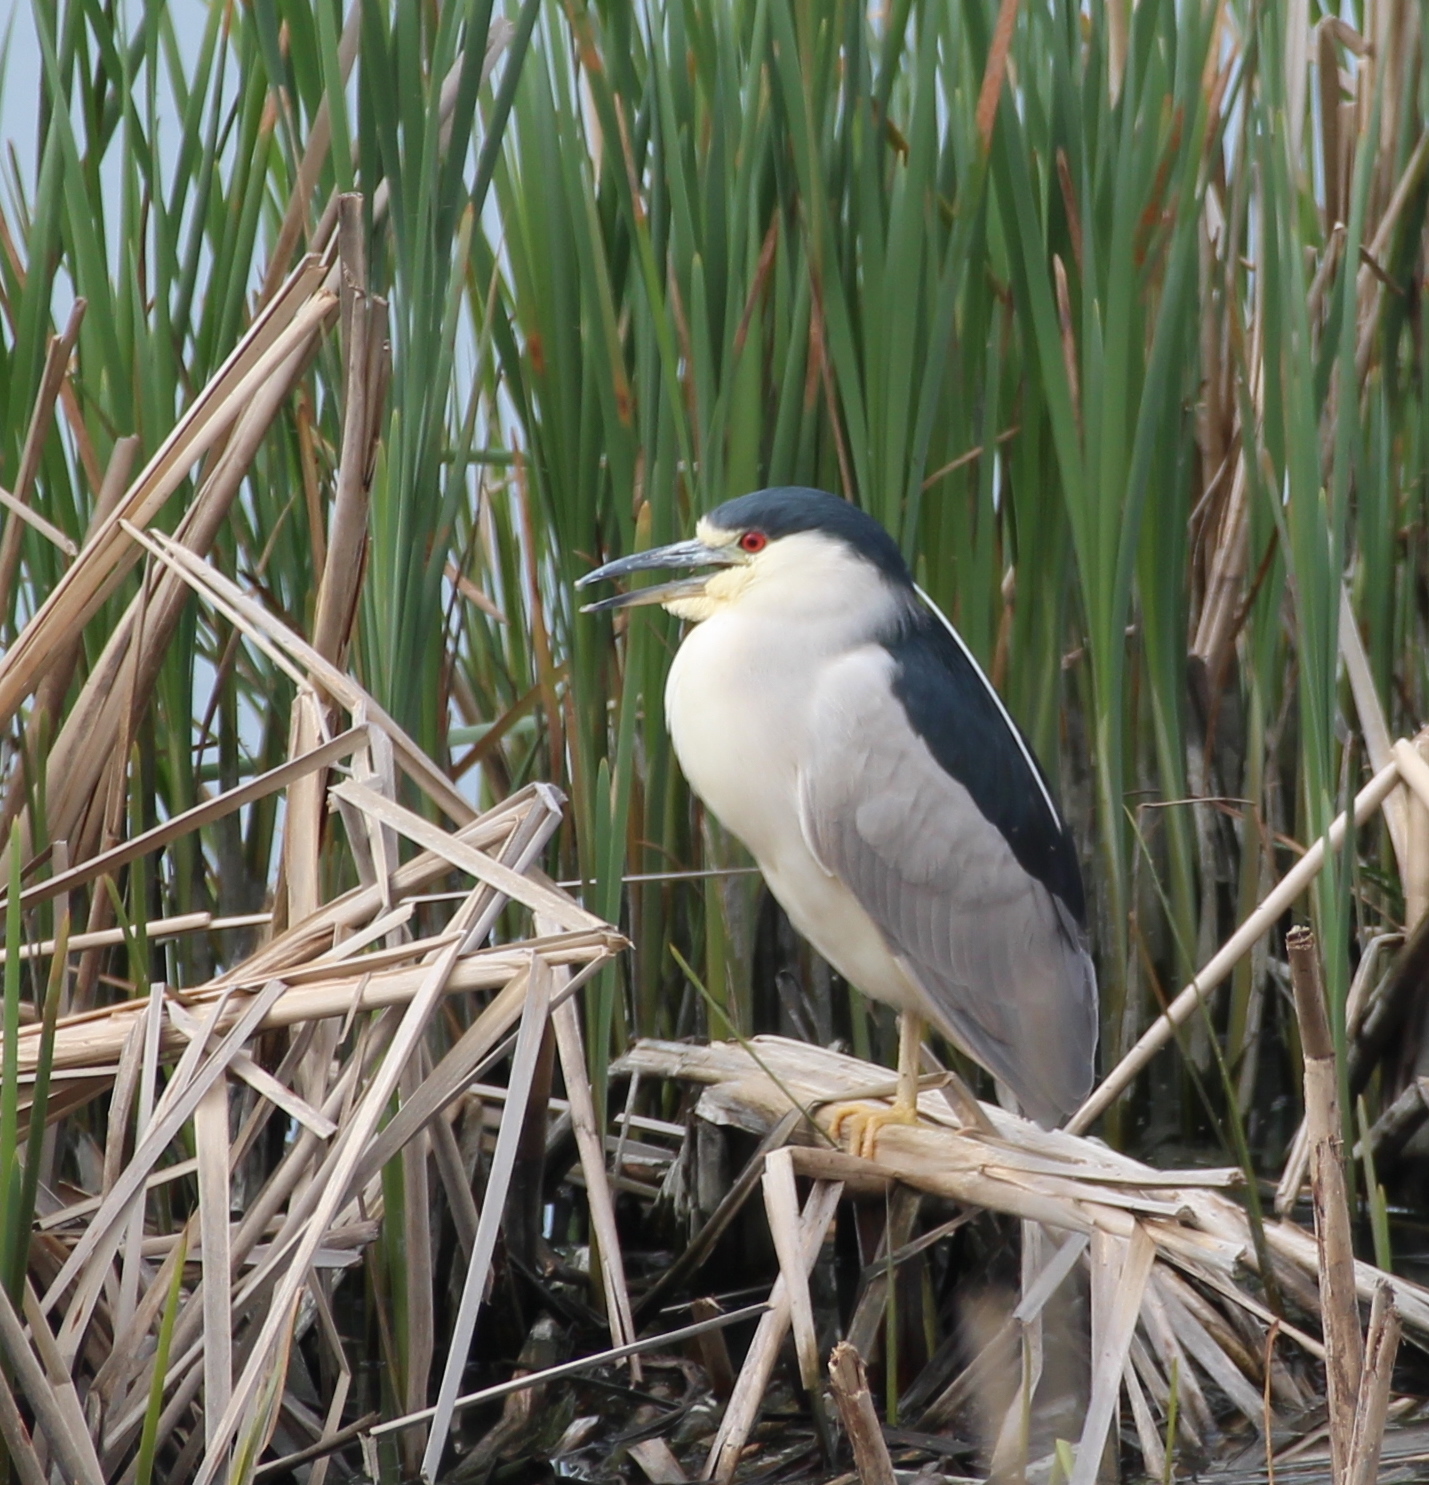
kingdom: Animalia
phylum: Chordata
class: Aves
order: Pelecaniformes
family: Ardeidae
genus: Nycticorax
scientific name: Nycticorax nycticorax
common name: Black-crowned night heron
